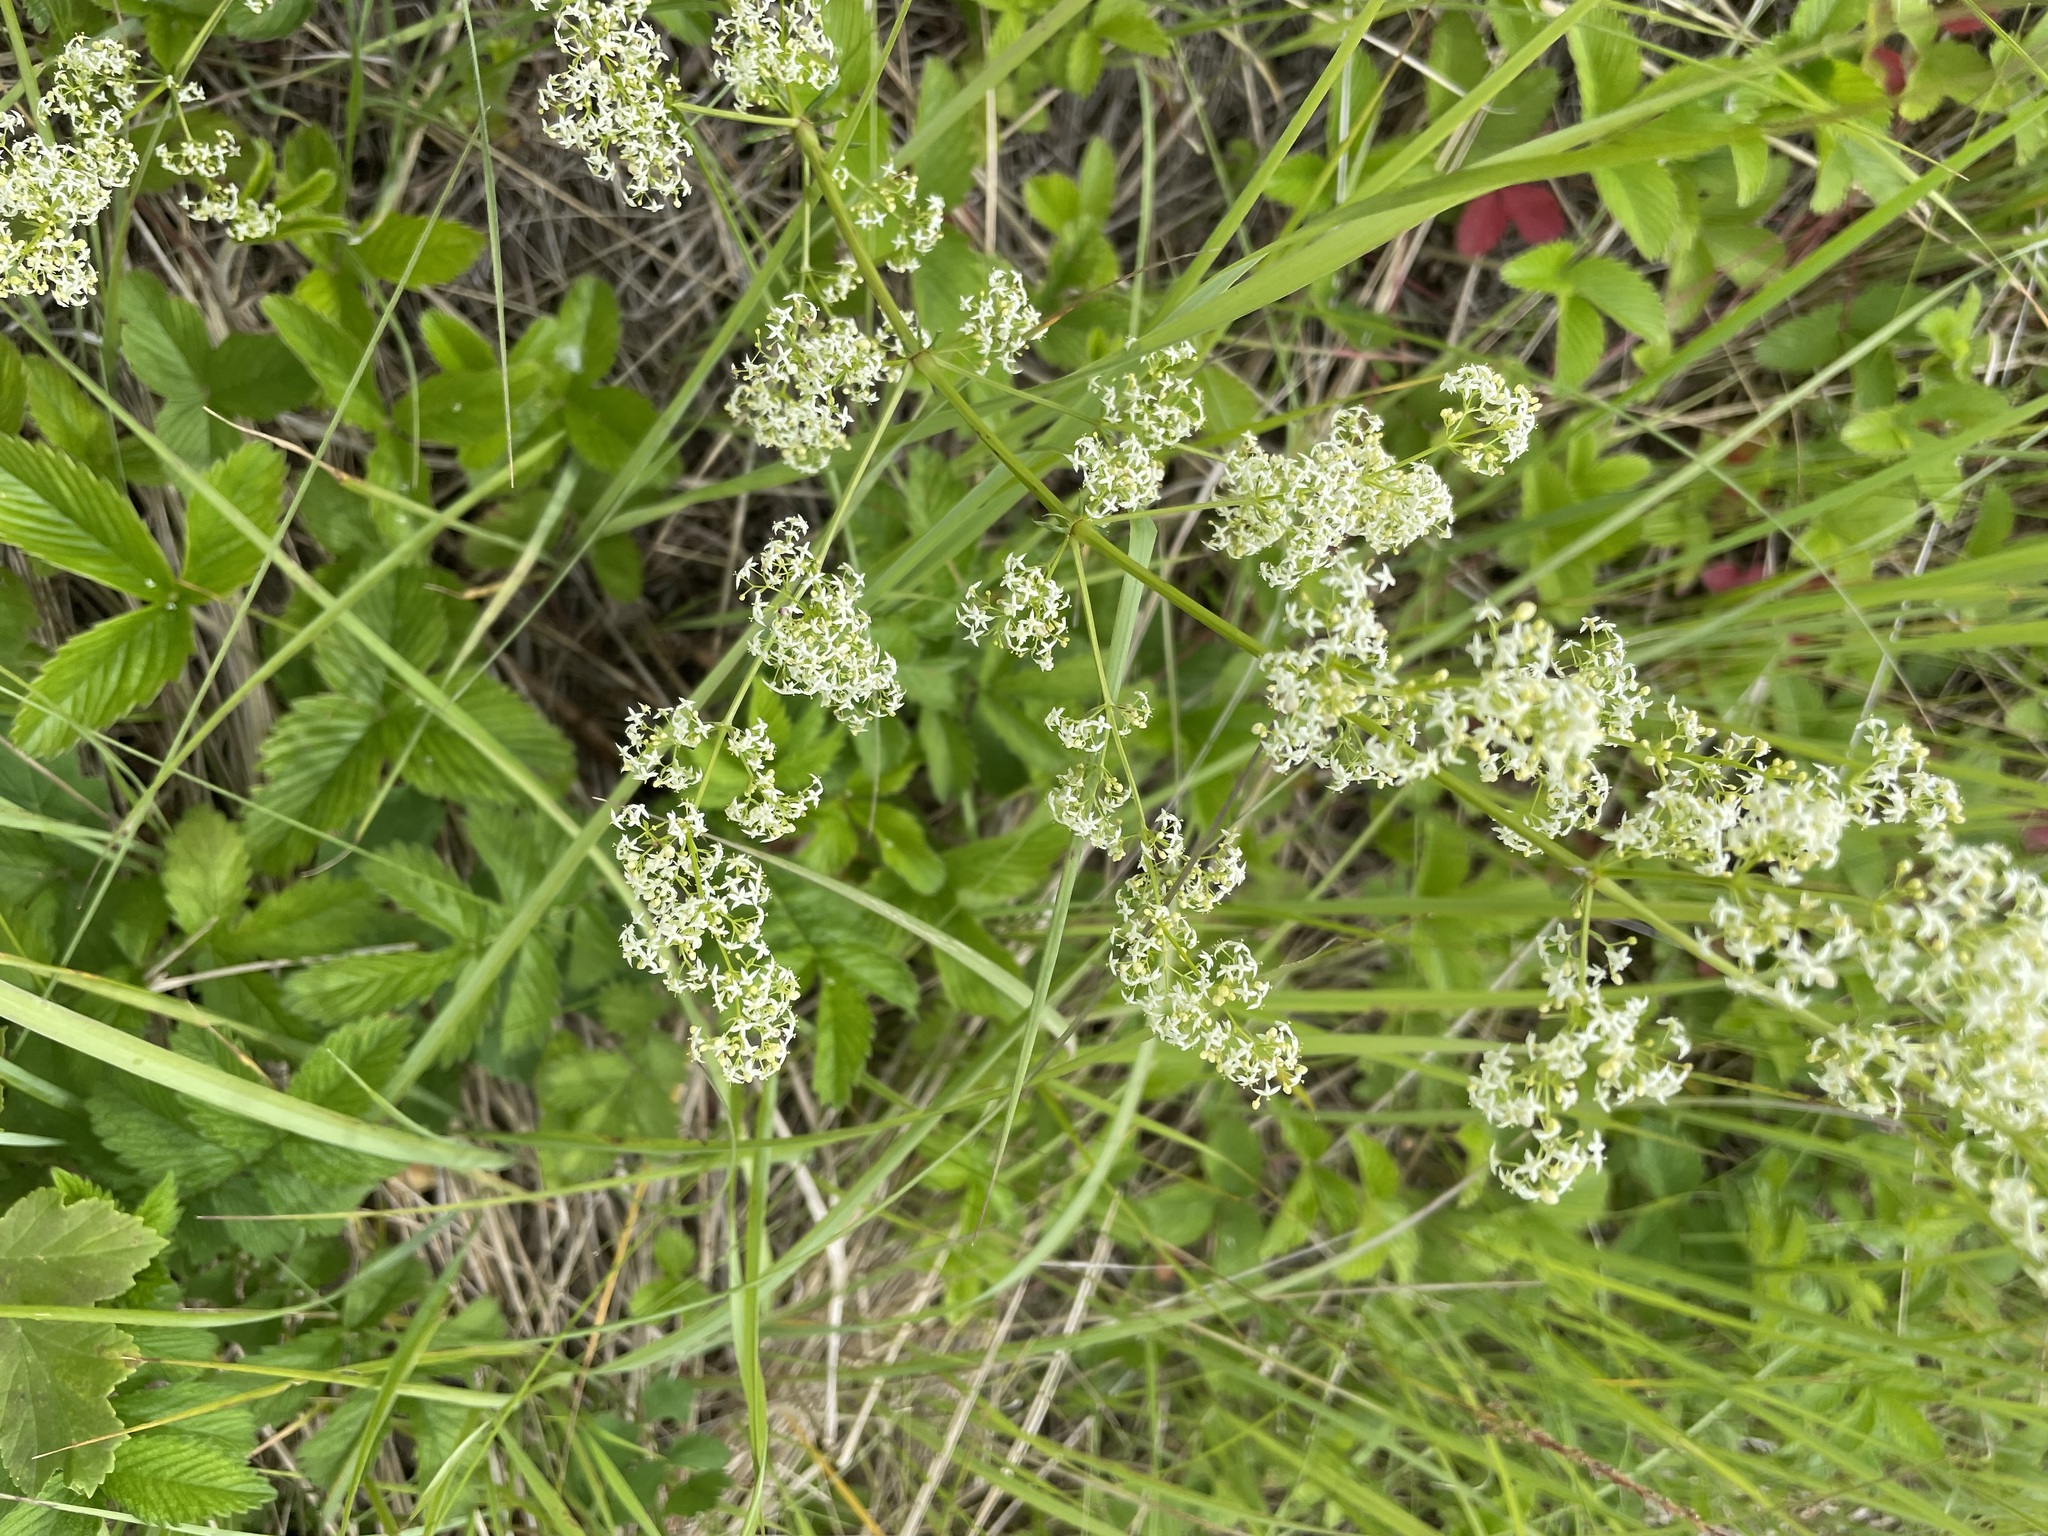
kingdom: Plantae
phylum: Tracheophyta
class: Magnoliopsida
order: Gentianales
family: Rubiaceae
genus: Galium
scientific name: Galium mollugo
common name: Hedge bedstraw
